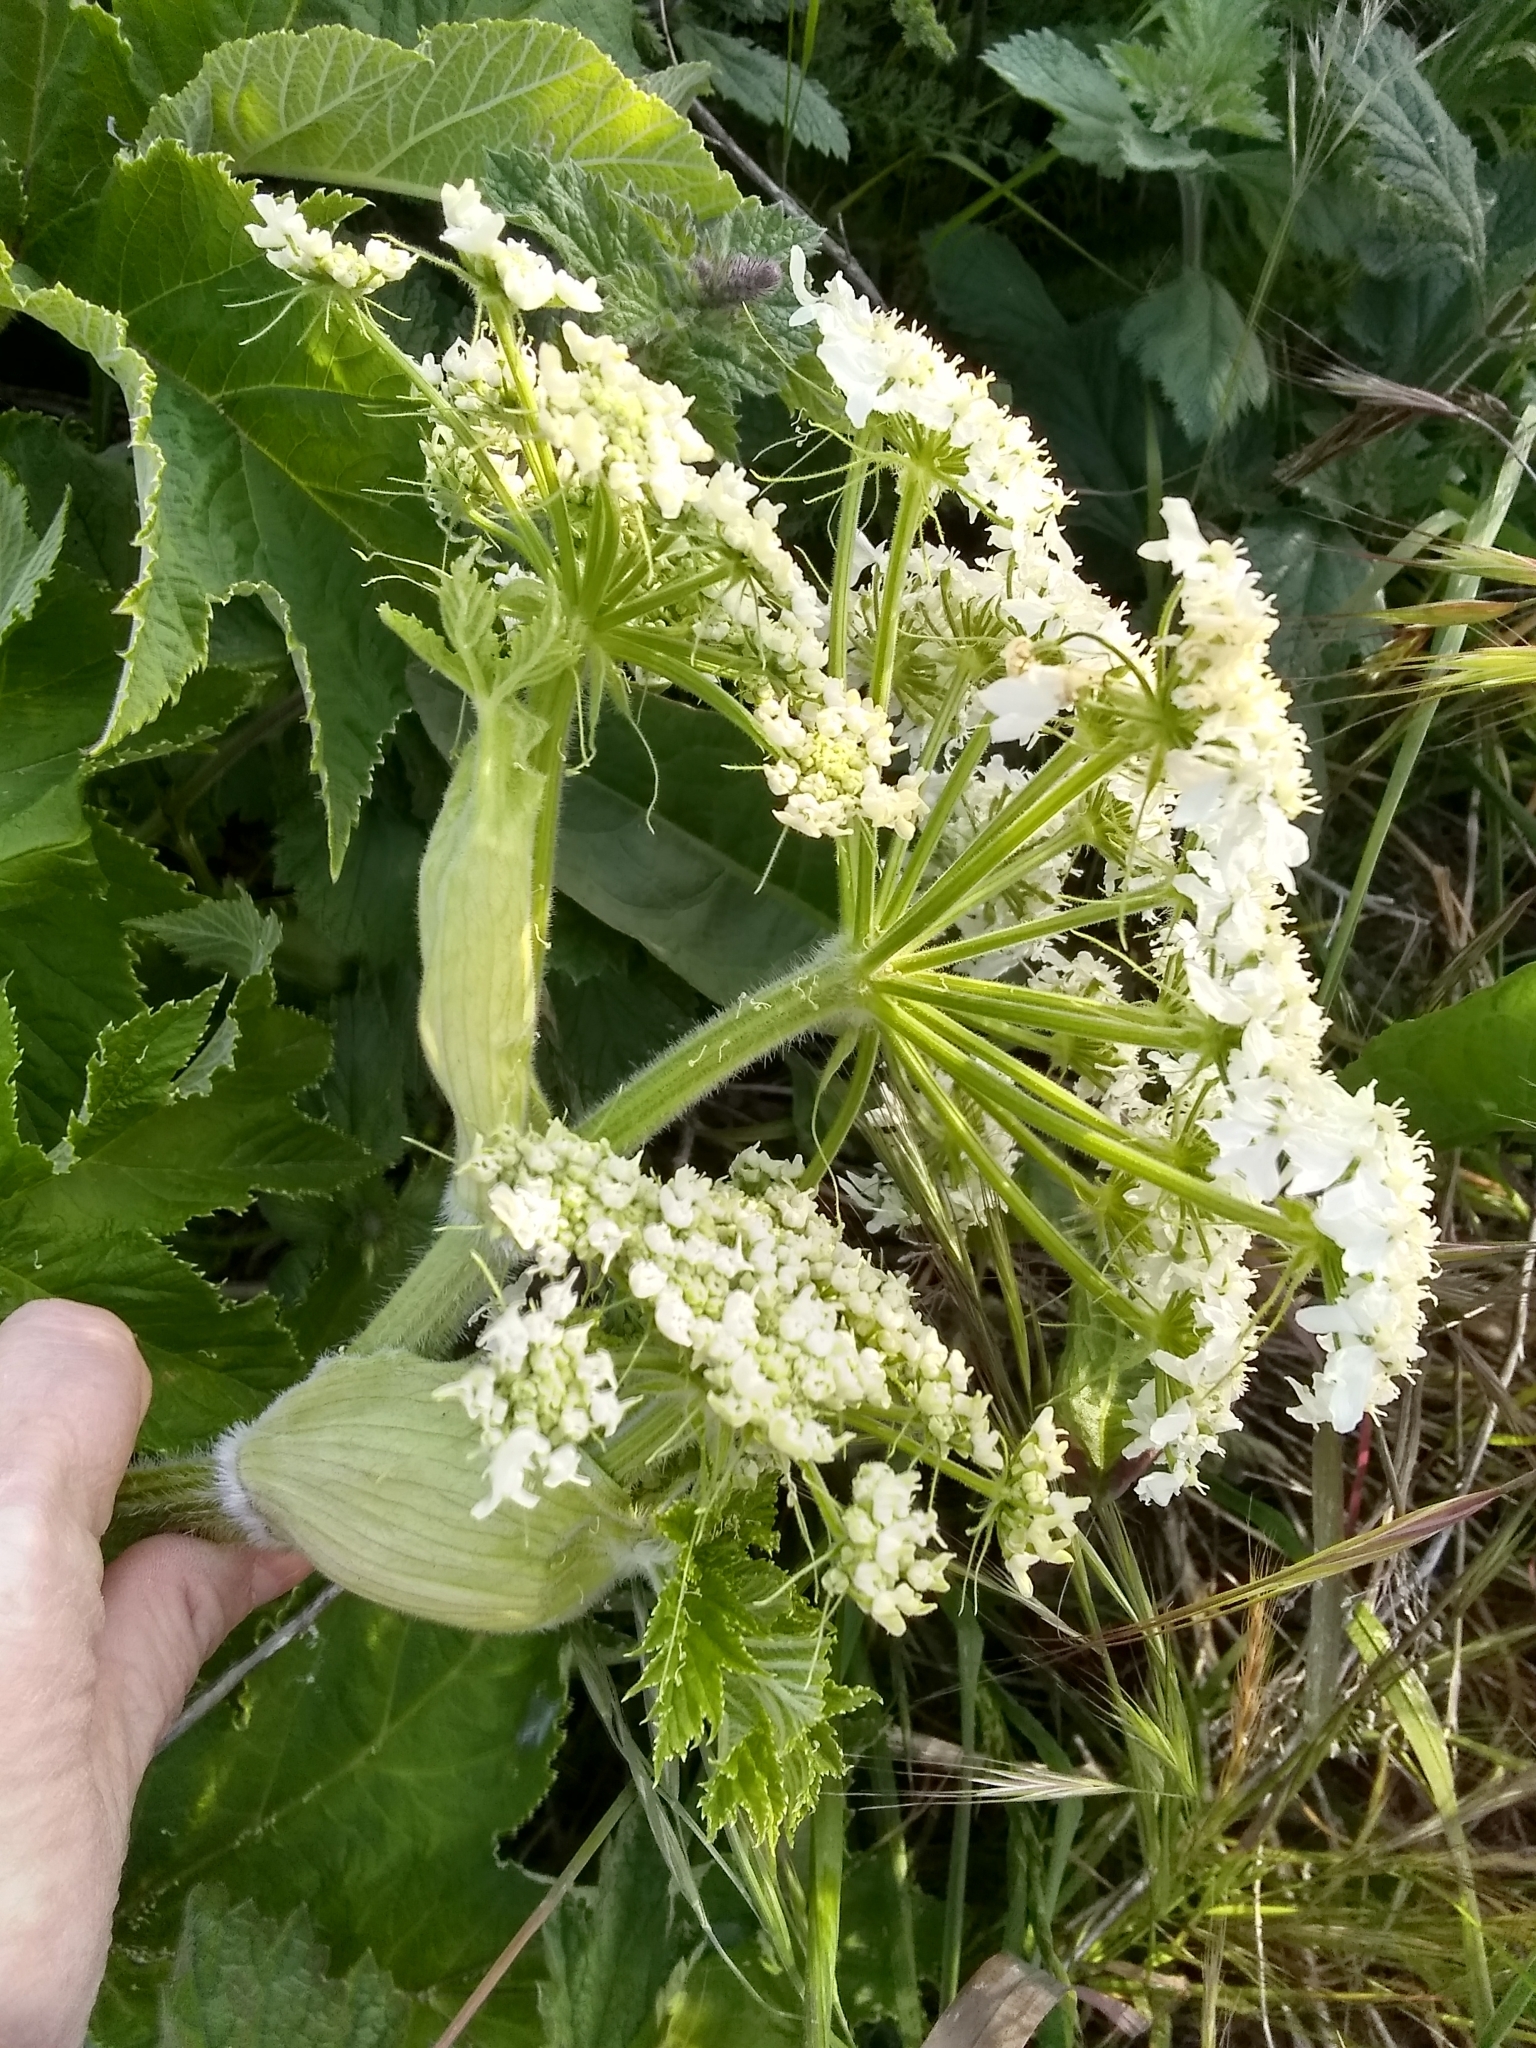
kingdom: Plantae
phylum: Tracheophyta
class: Magnoliopsida
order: Apiales
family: Apiaceae
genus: Heracleum
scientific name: Heracleum maximum
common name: American cow parsnip
